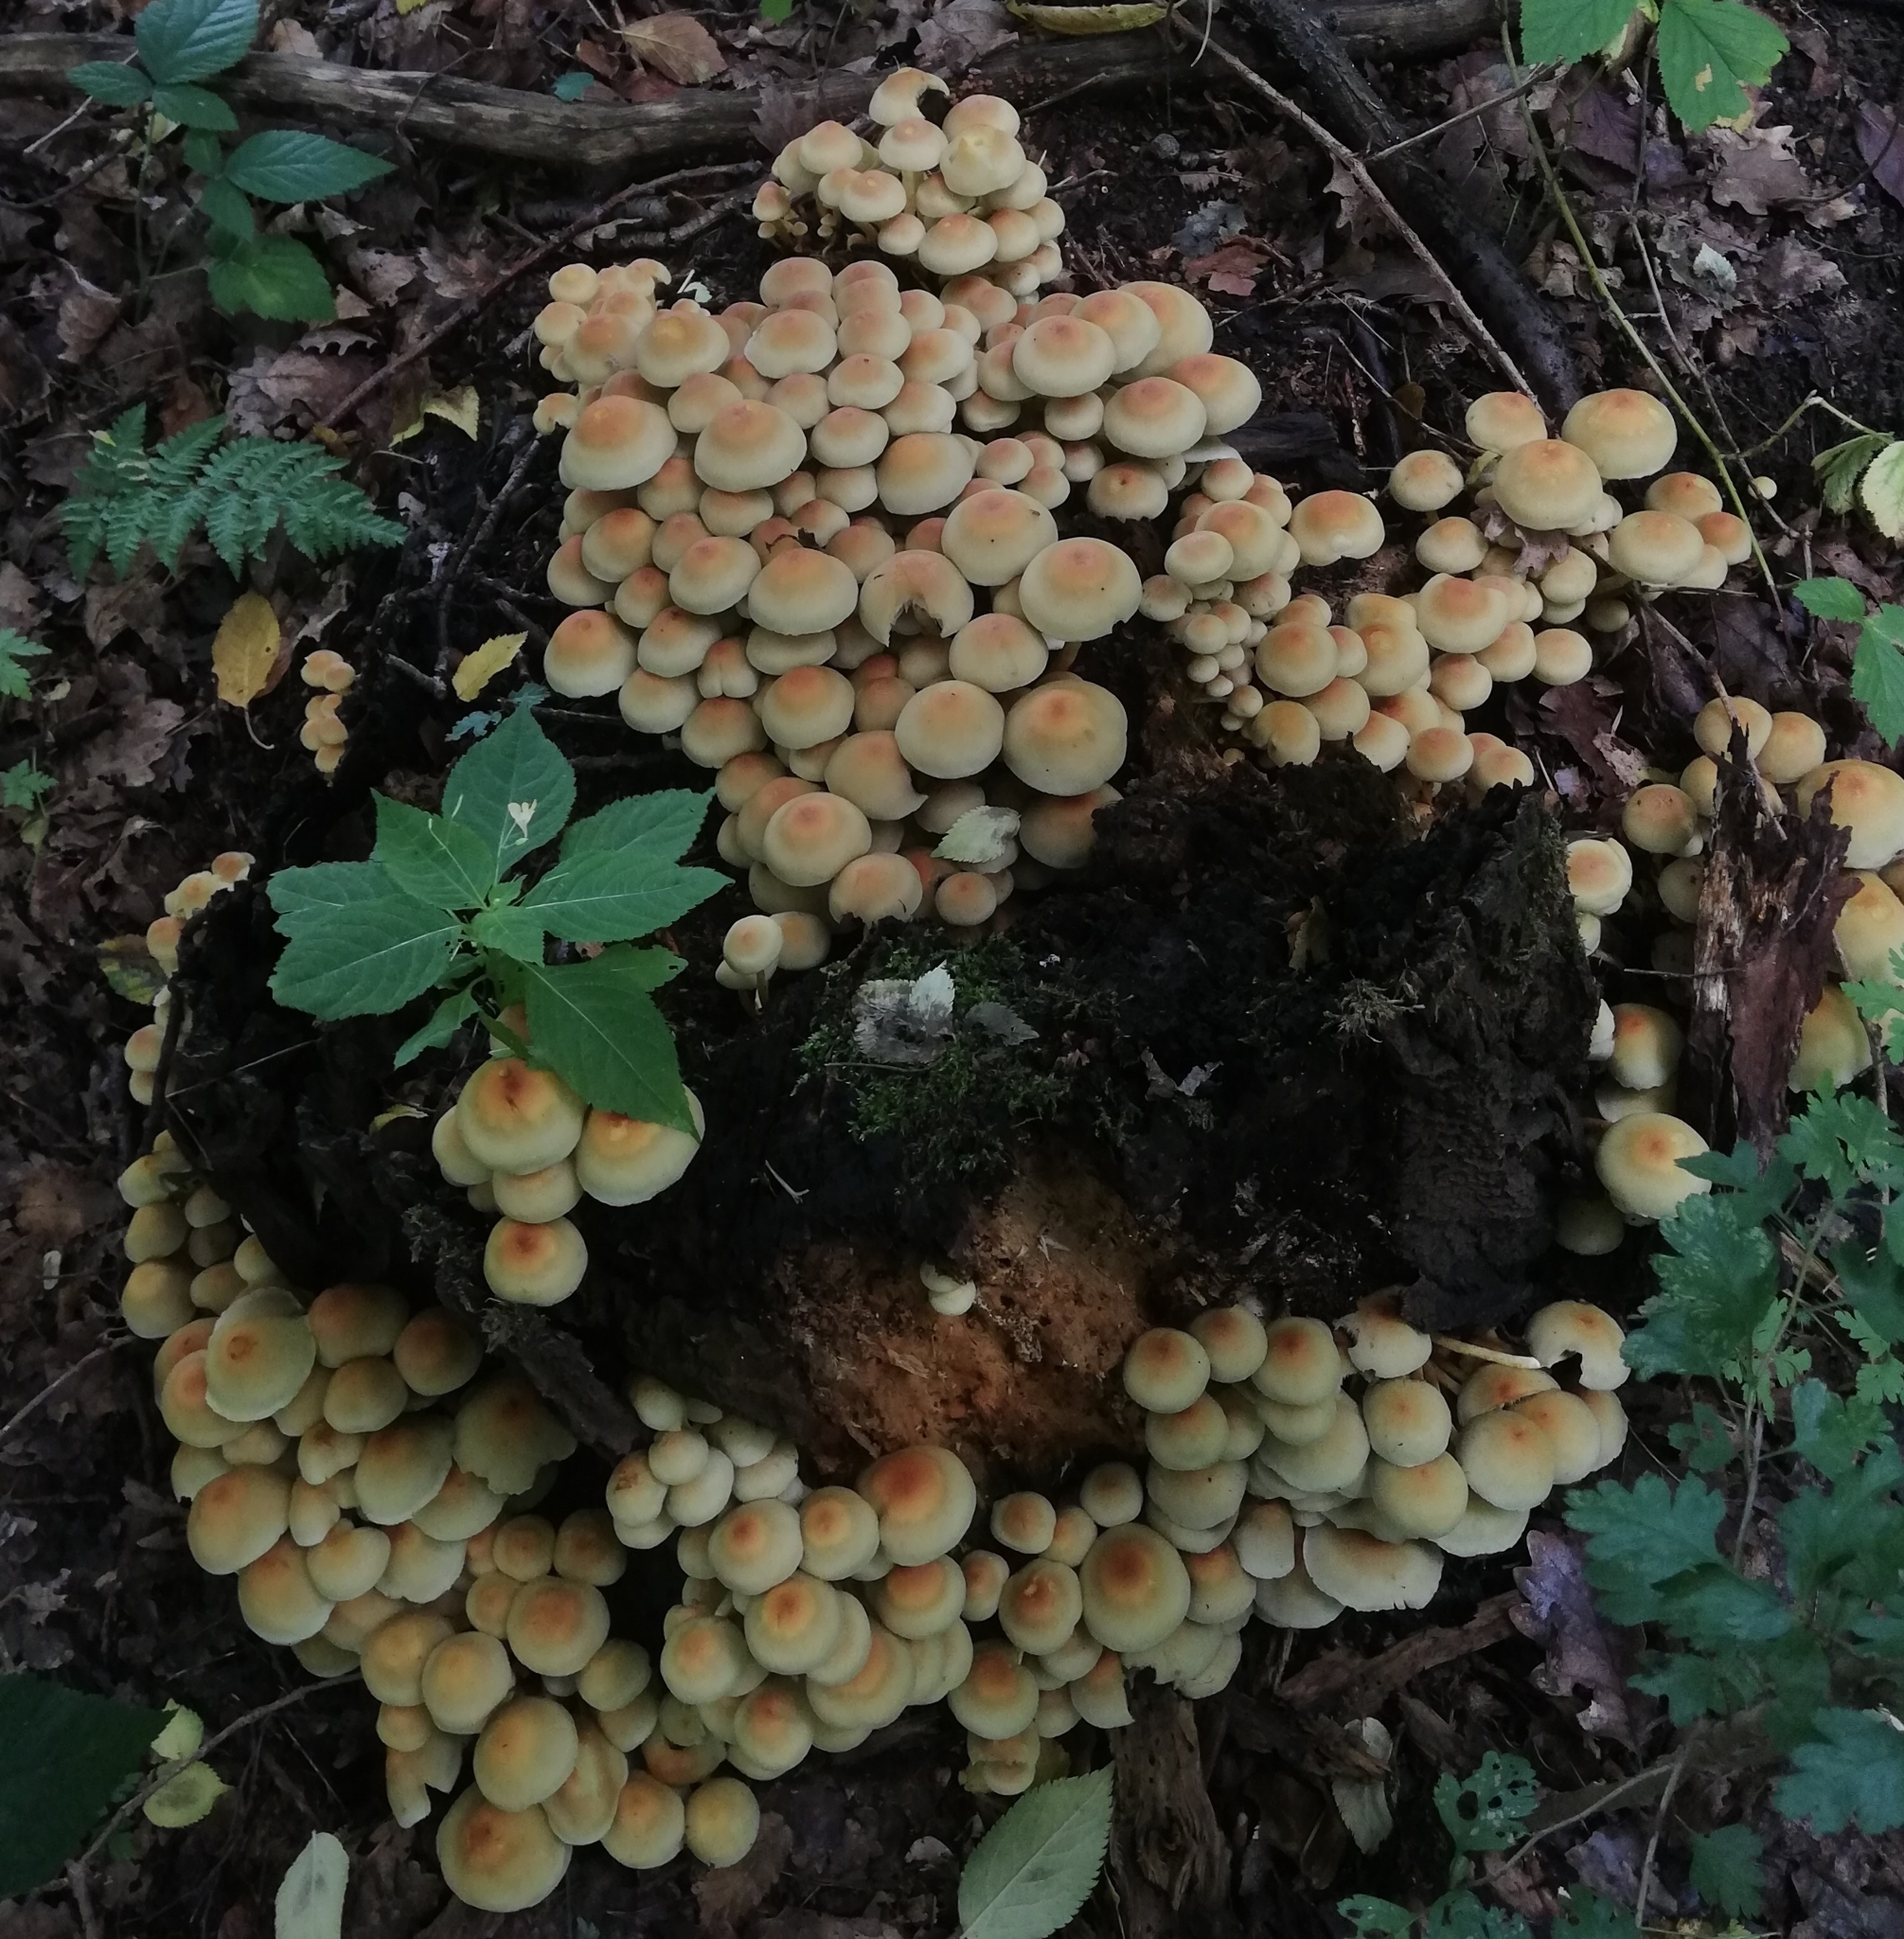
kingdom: Fungi
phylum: Basidiomycota
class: Agaricomycetes
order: Agaricales
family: Strophariaceae
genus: Hypholoma
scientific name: Hypholoma fasciculare
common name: Sulphur tuft
